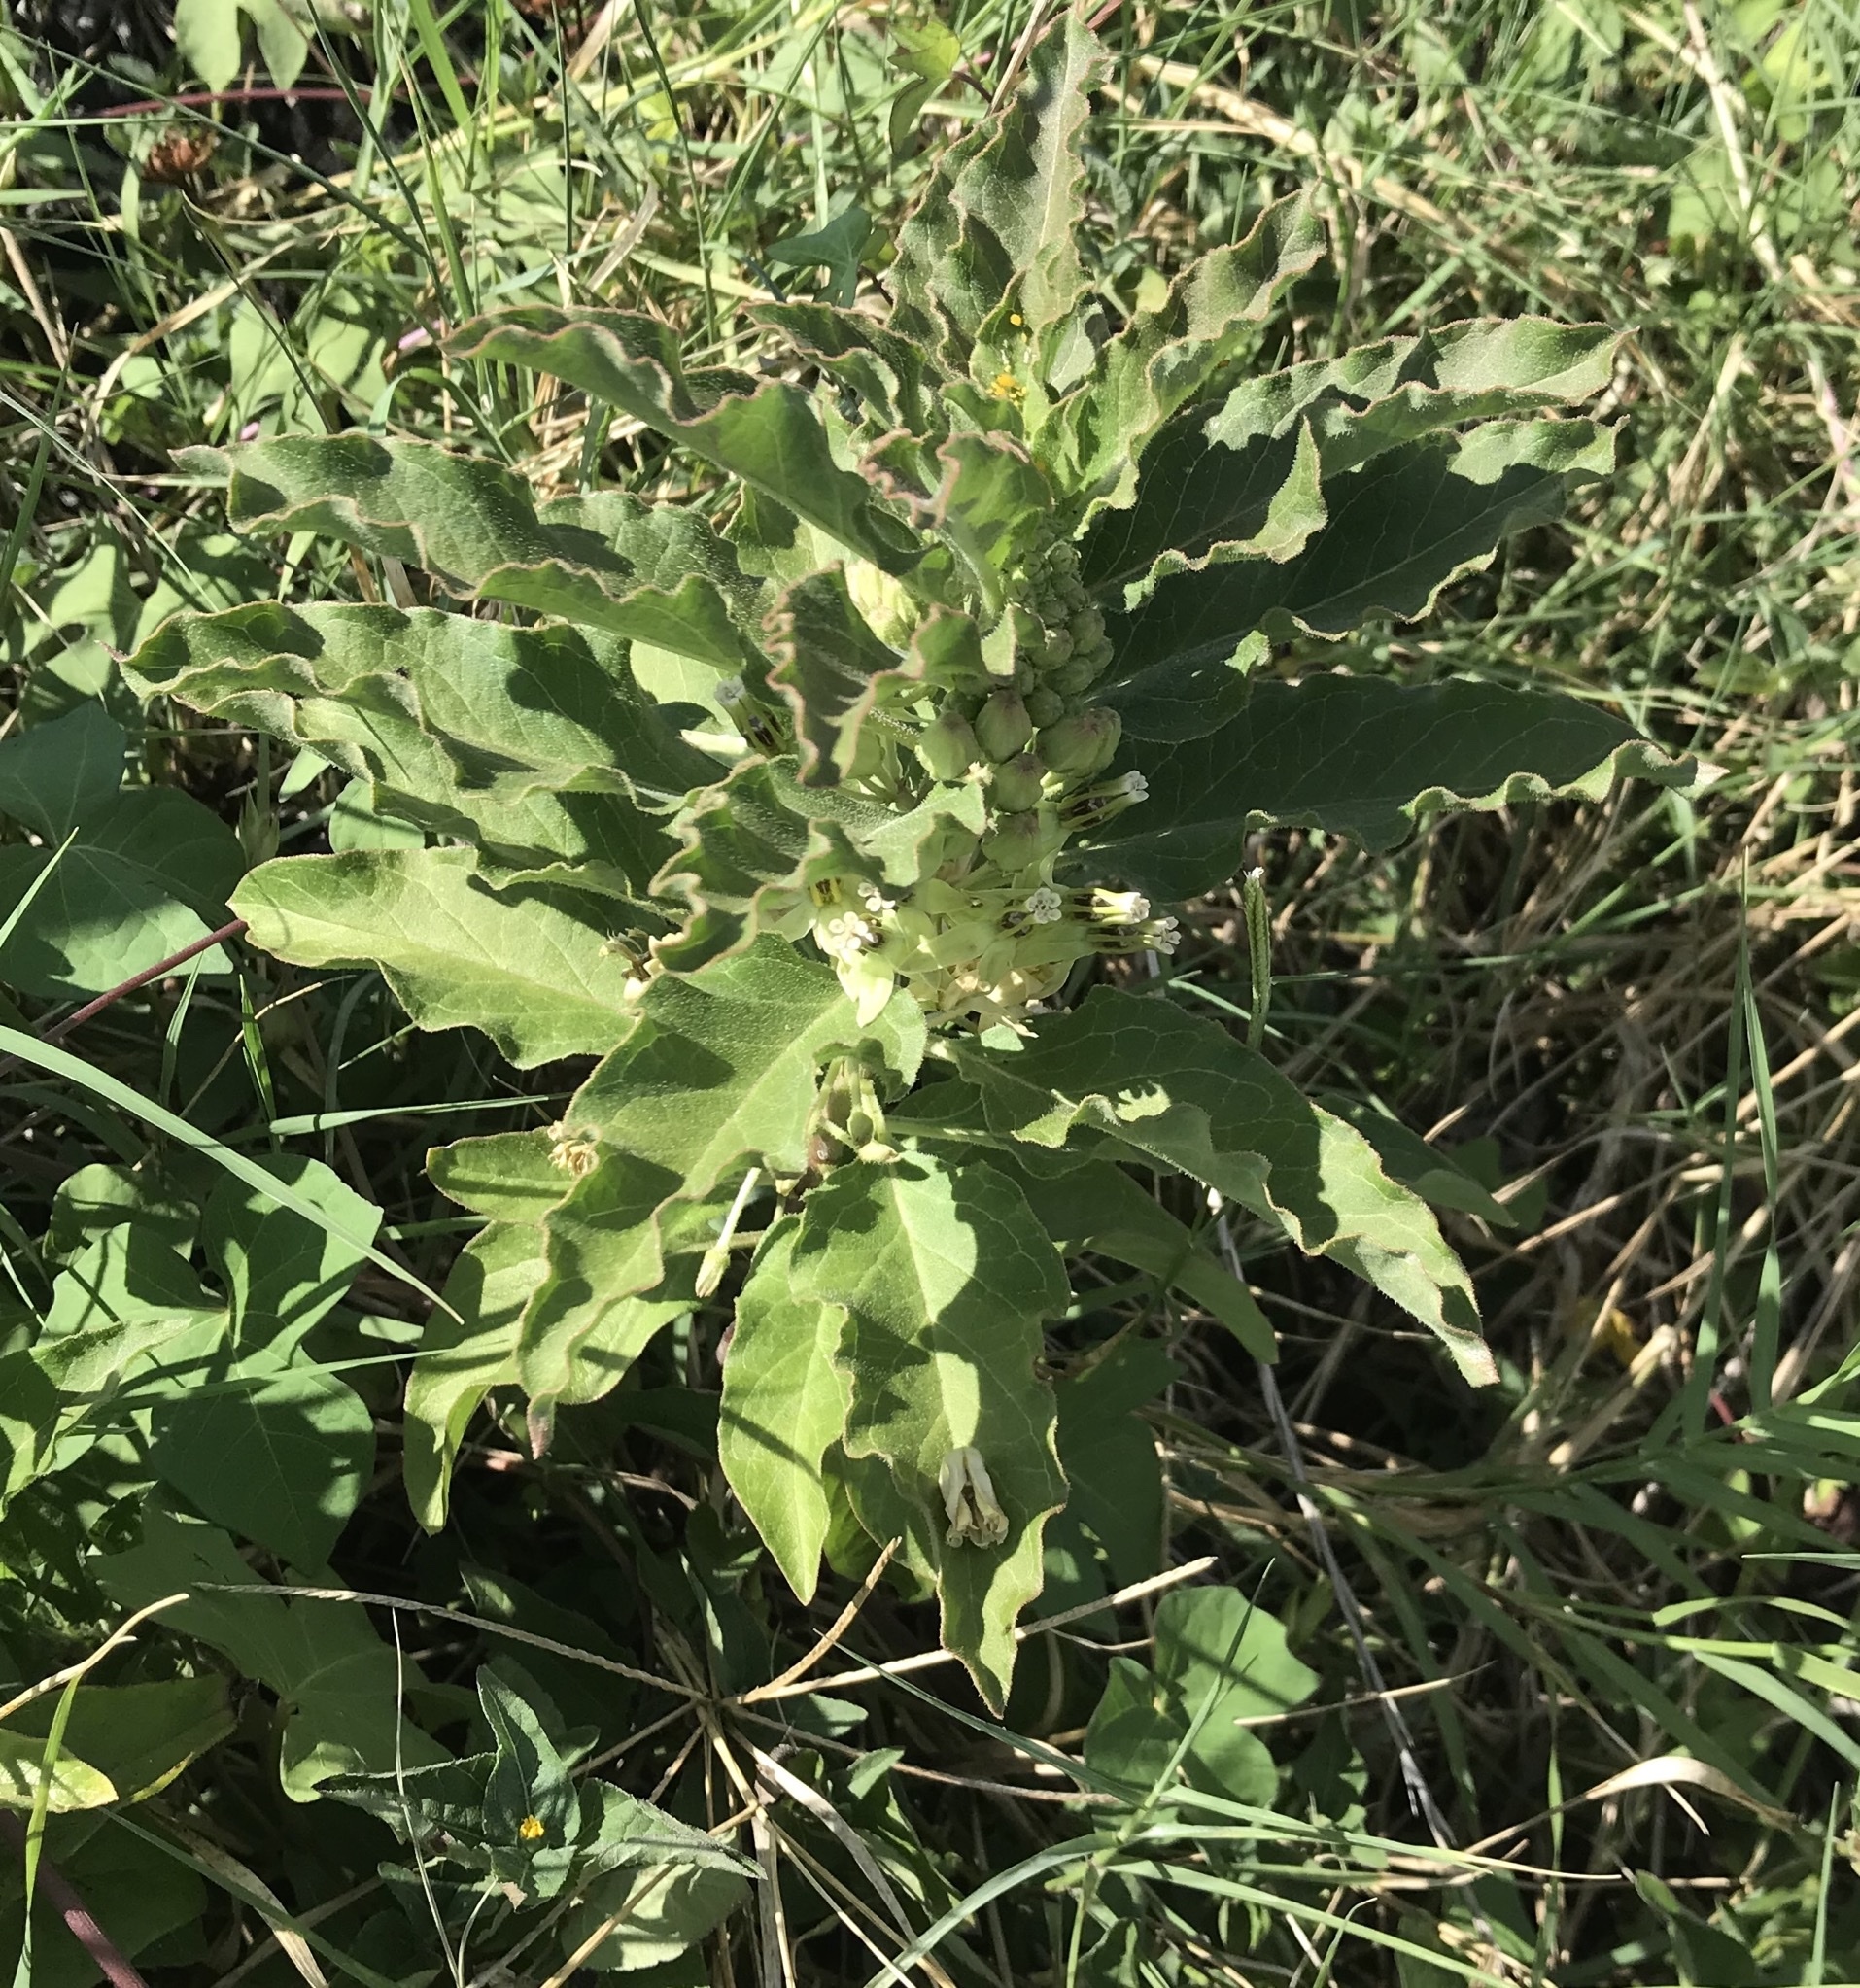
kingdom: Plantae
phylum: Tracheophyta
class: Magnoliopsida
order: Gentianales
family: Apocynaceae
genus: Asclepias
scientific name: Asclepias oenotheroides
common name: Zizotes milkweed
